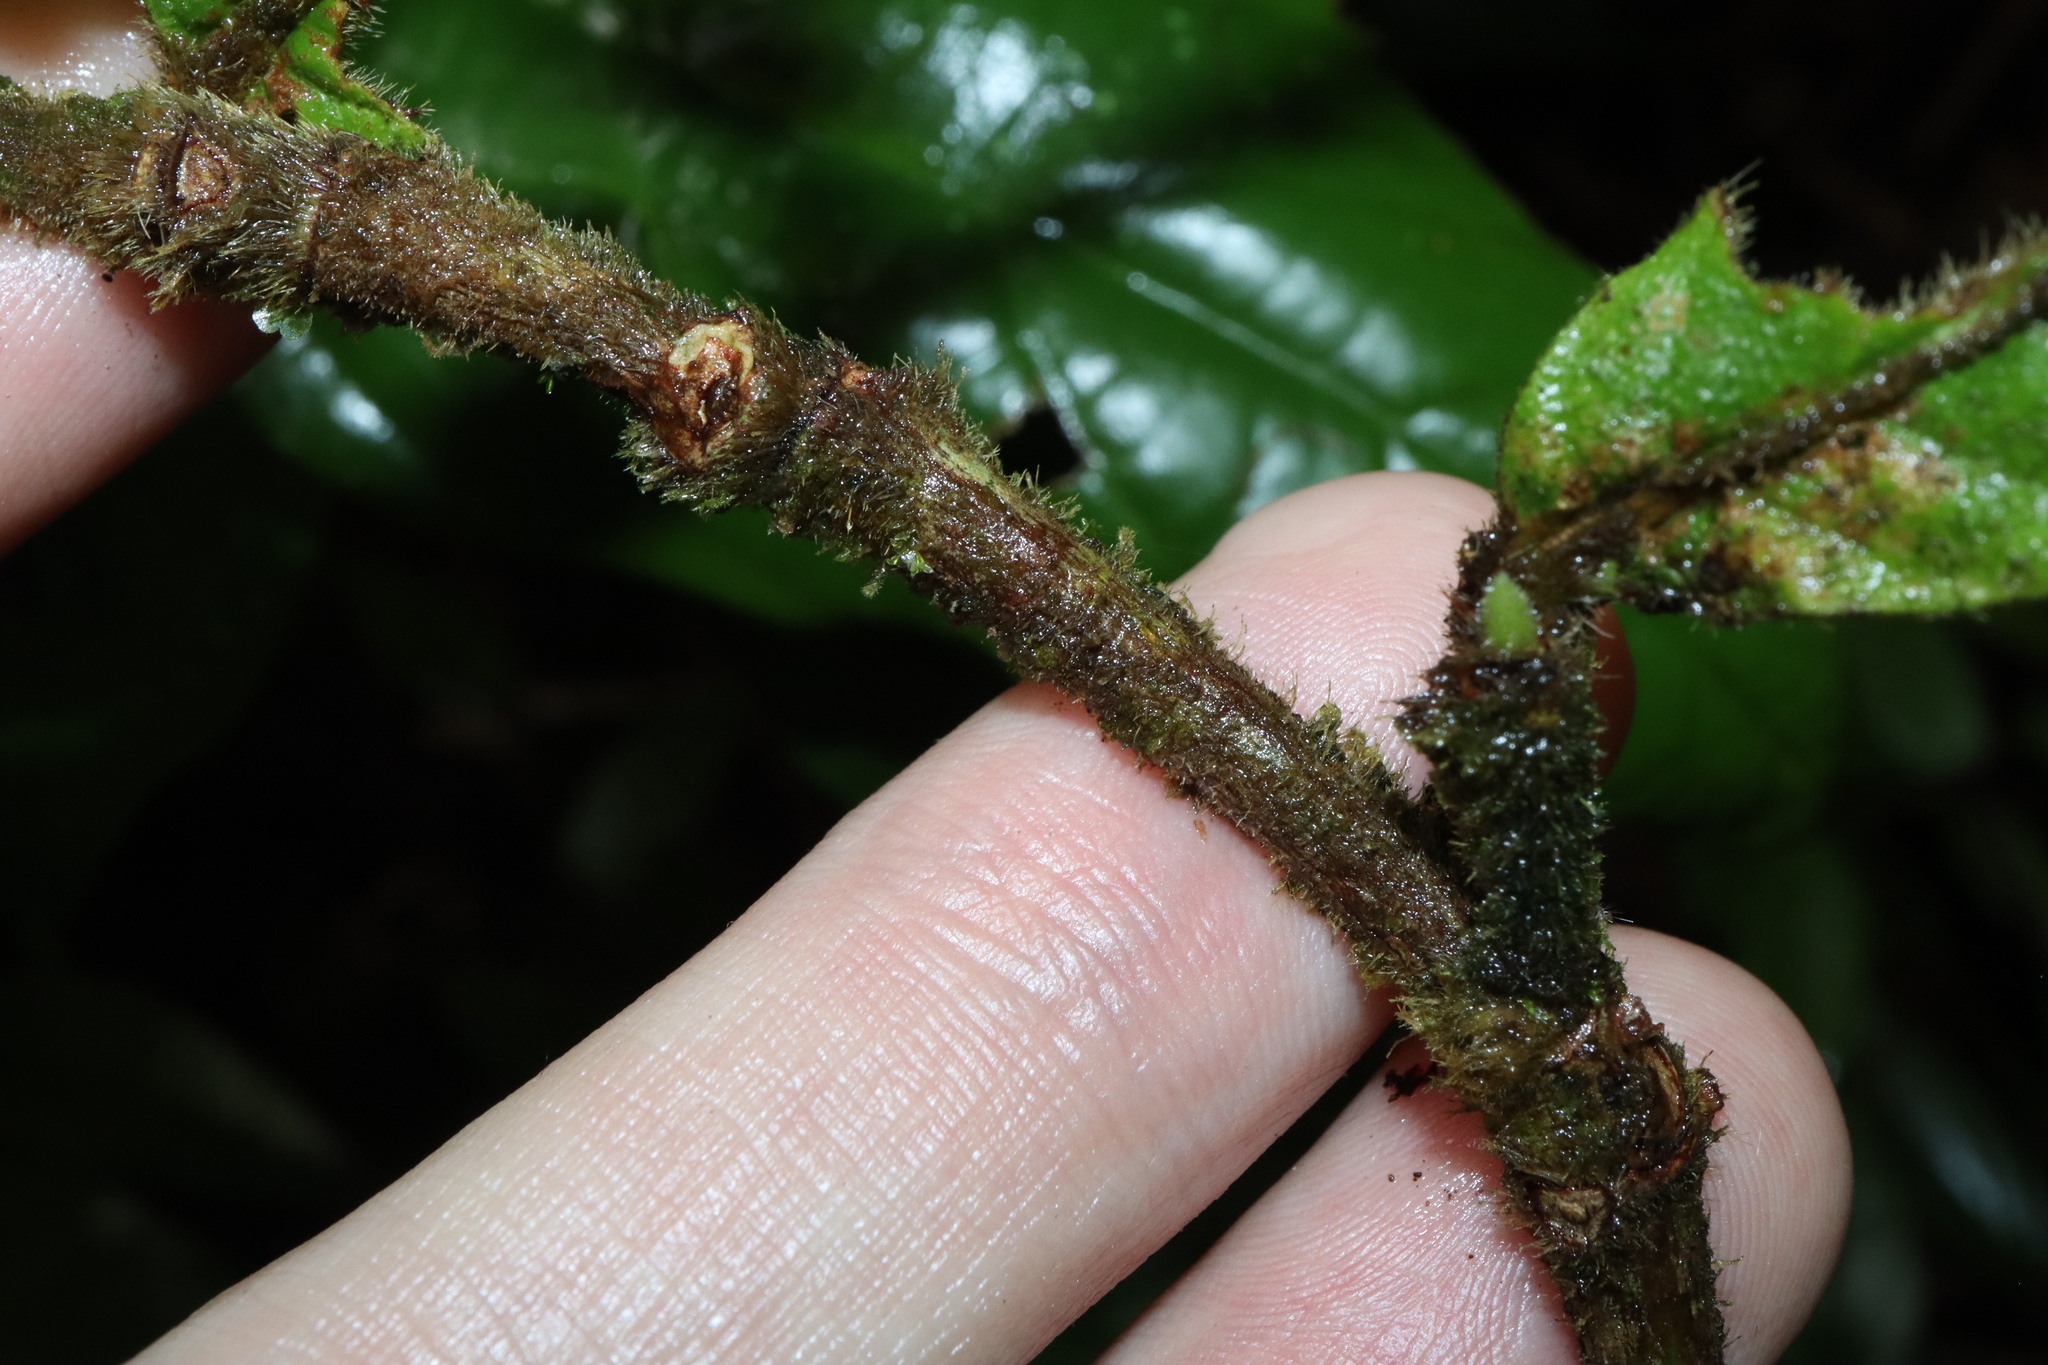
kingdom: Plantae
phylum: Tracheophyta
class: Magnoliopsida
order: Gentianales
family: Rubiaceae
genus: Atractocarpus
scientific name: Atractocarpus hirtus
